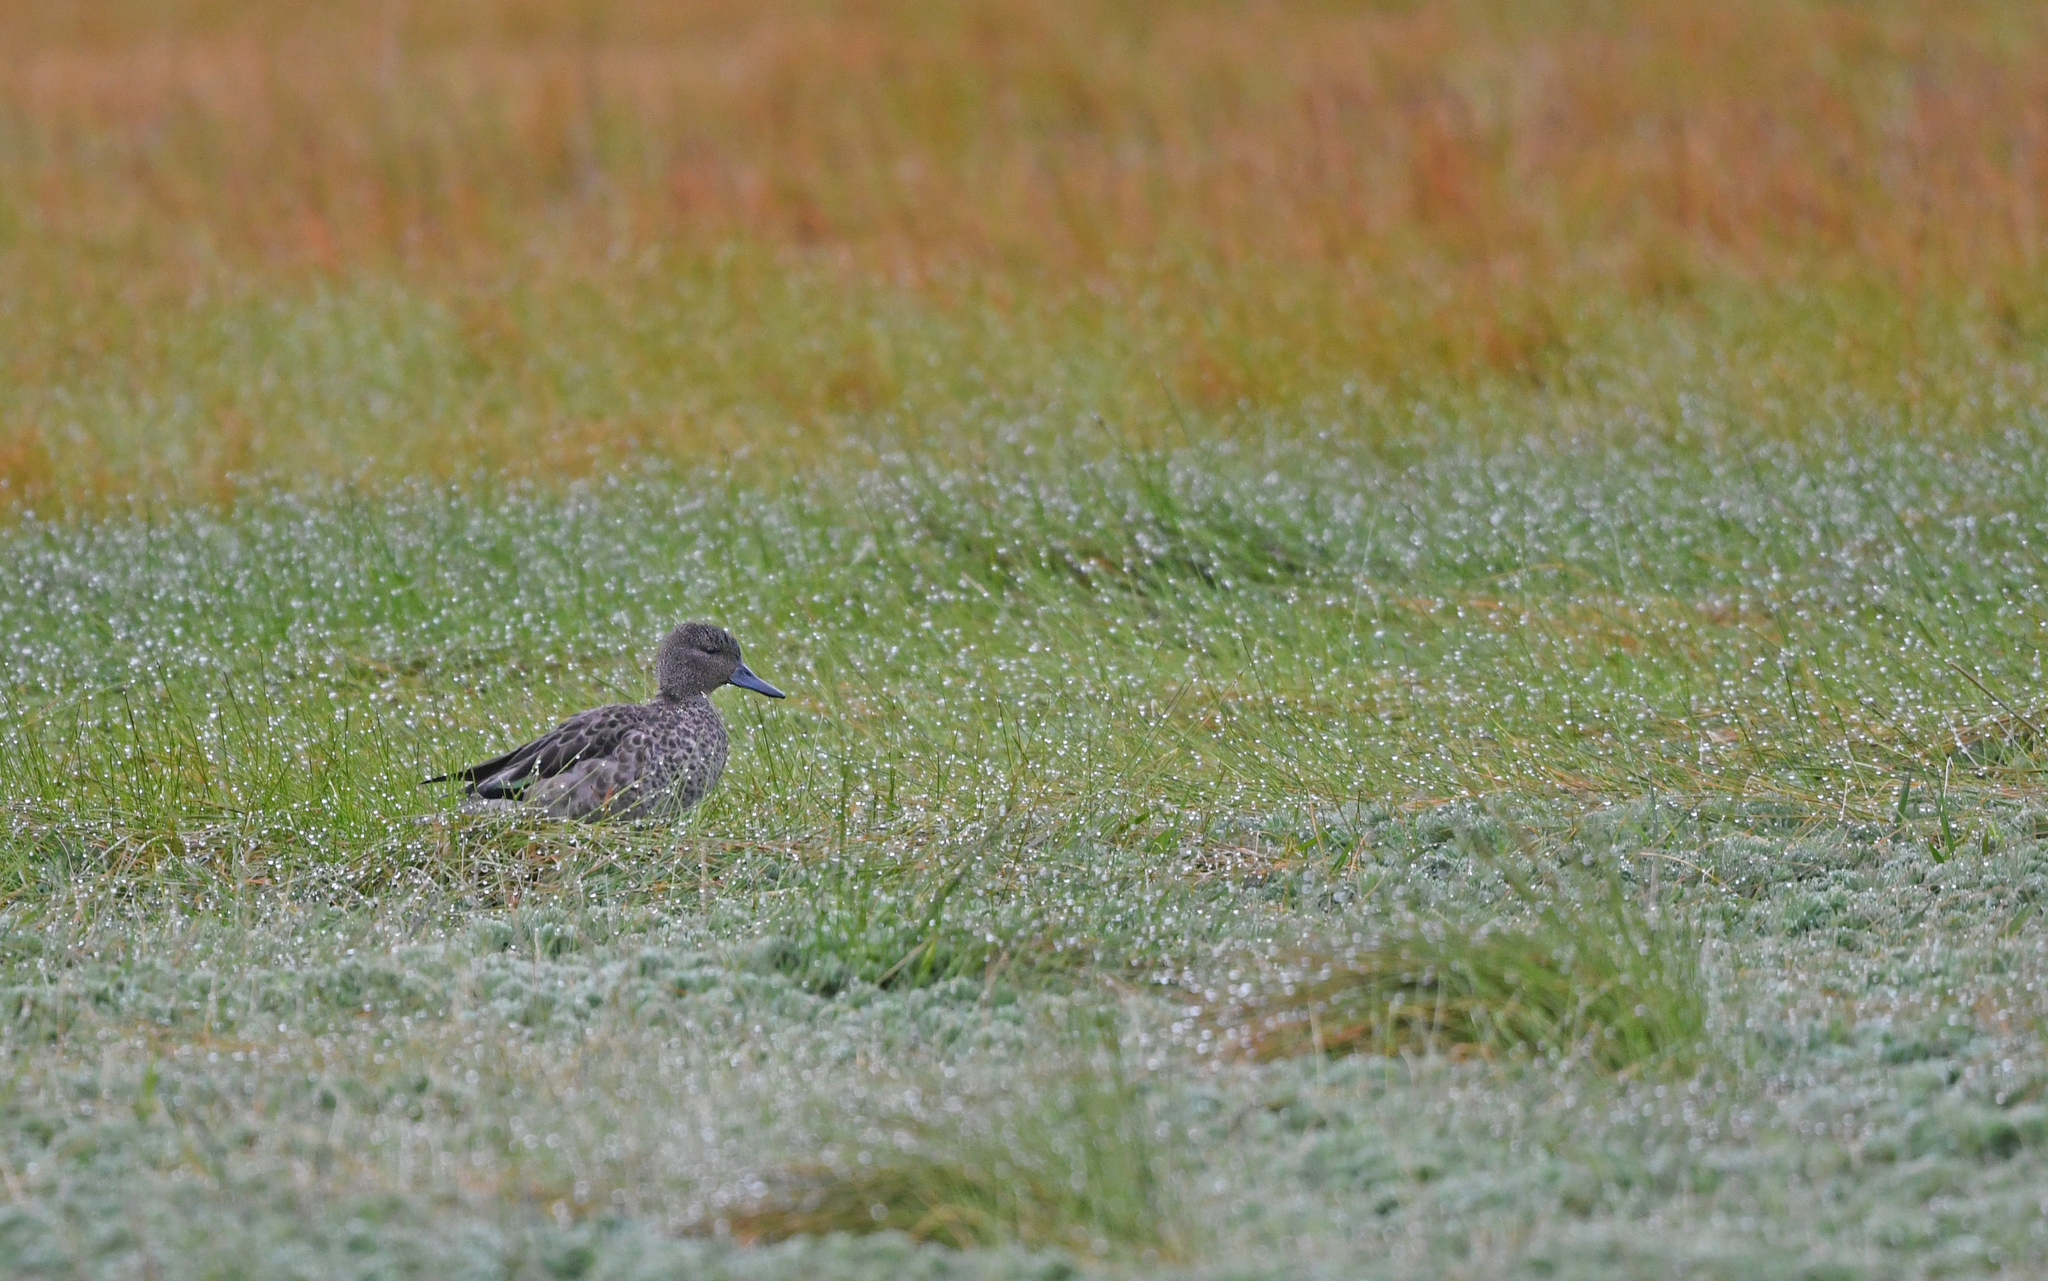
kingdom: Animalia
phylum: Chordata
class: Aves
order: Anseriformes
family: Anatidae
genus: Anas
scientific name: Anas andium
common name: Andean teal
